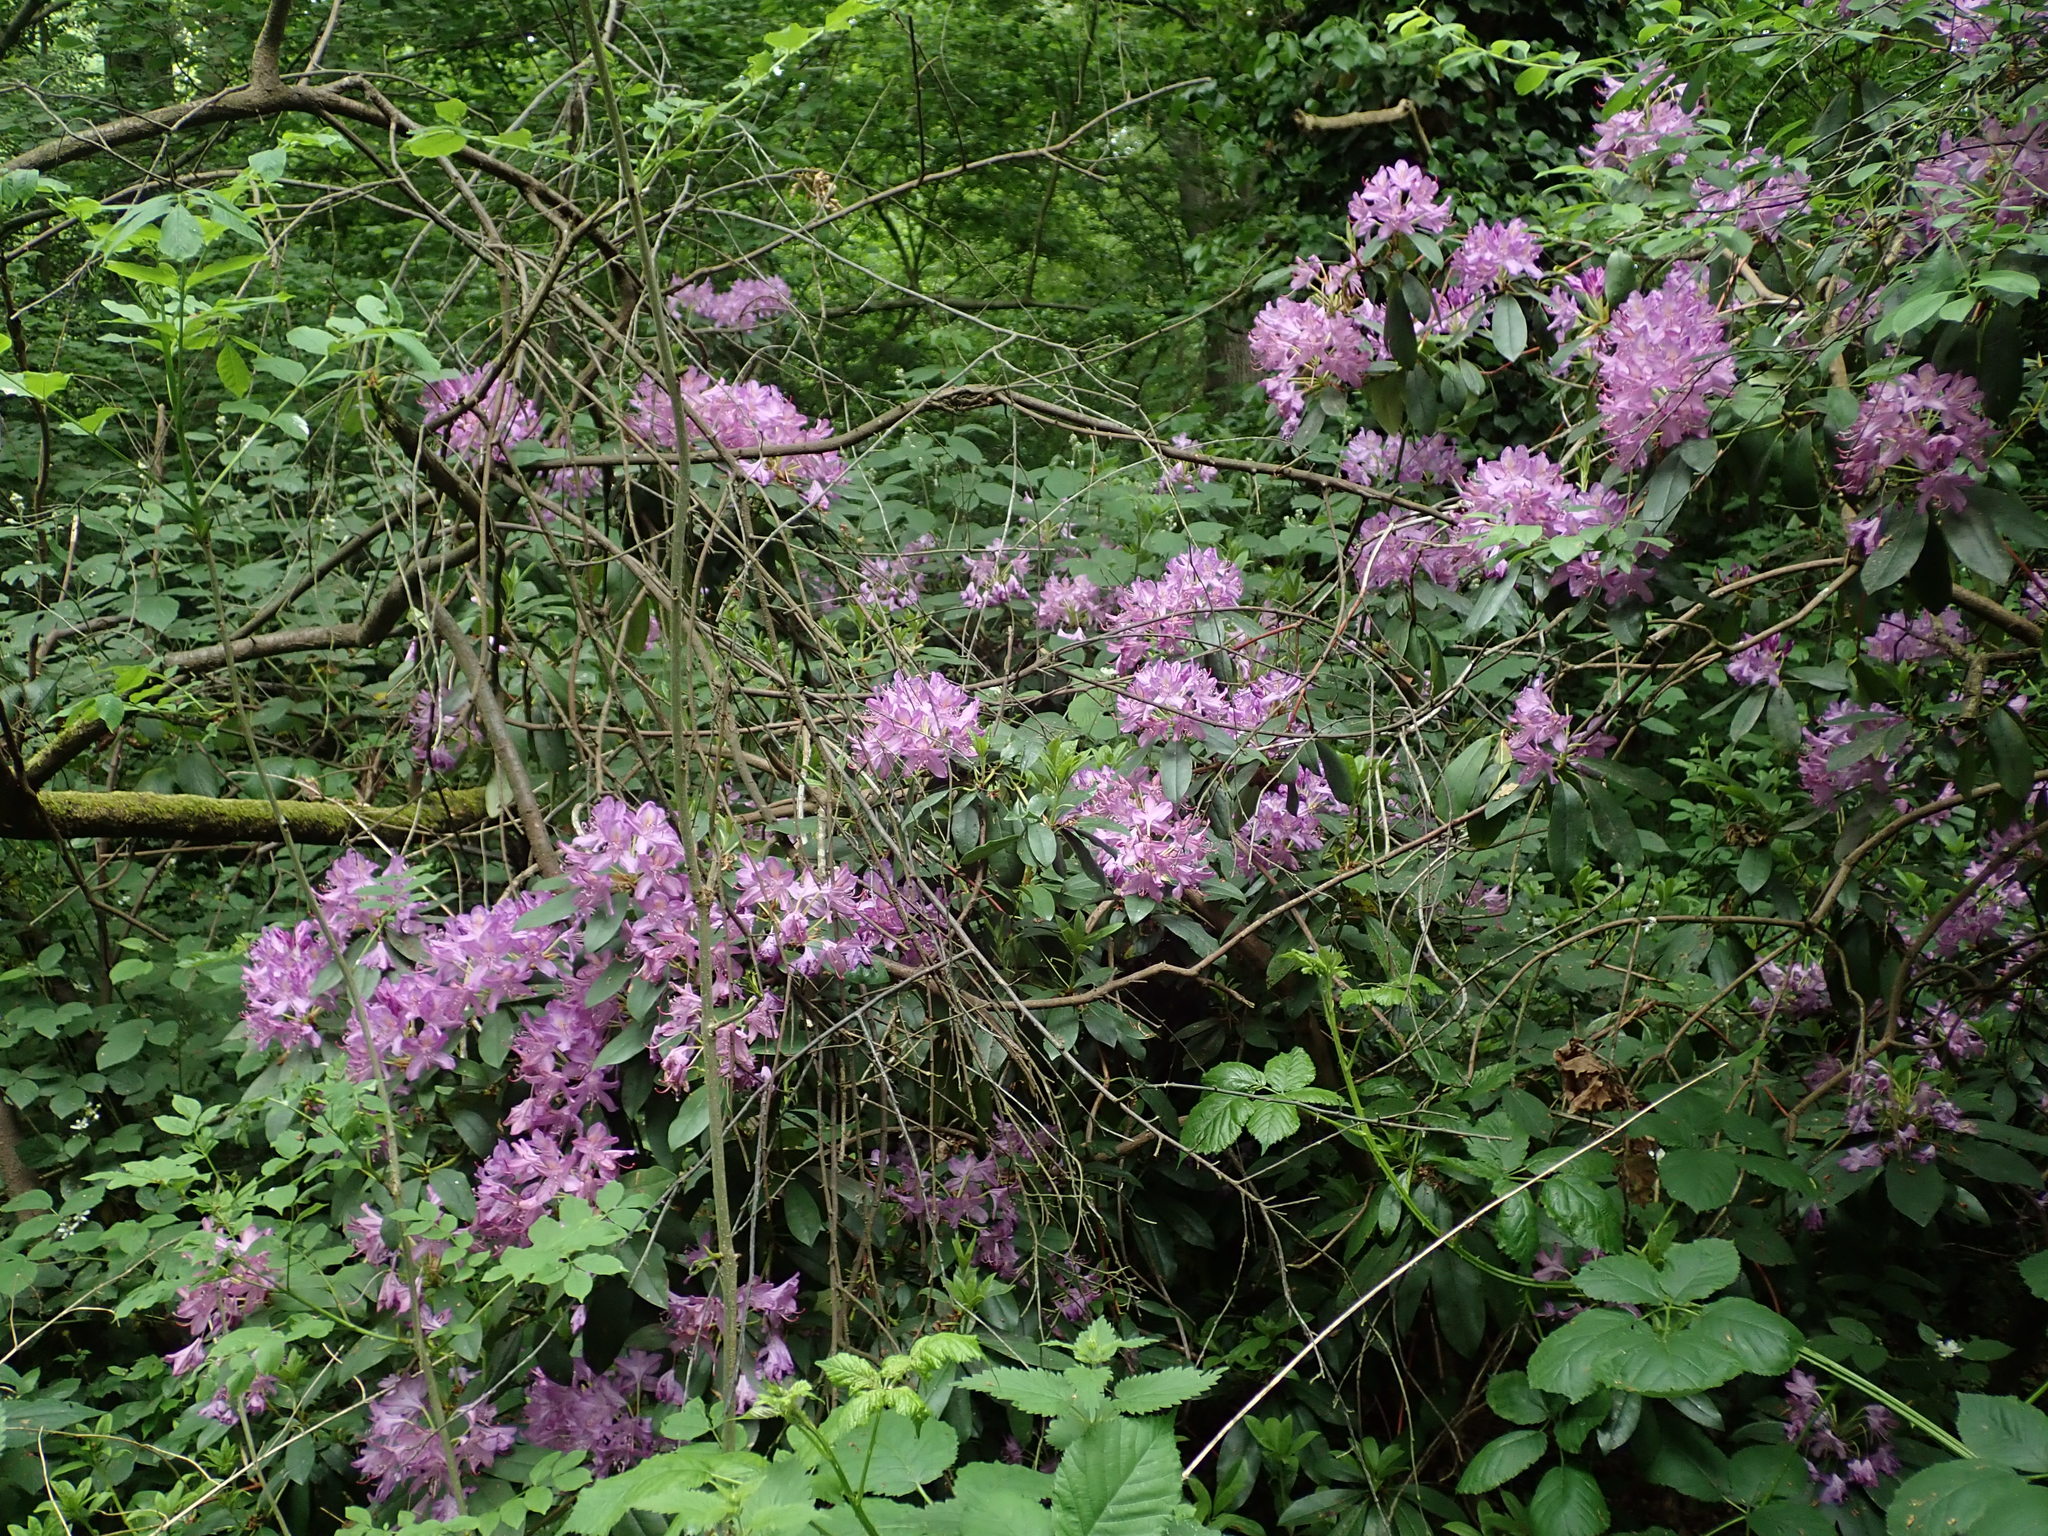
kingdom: Plantae
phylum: Tracheophyta
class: Magnoliopsida
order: Ericales
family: Ericaceae
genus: Rhododendron
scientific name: Rhododendron ponticum
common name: Rhododendron
